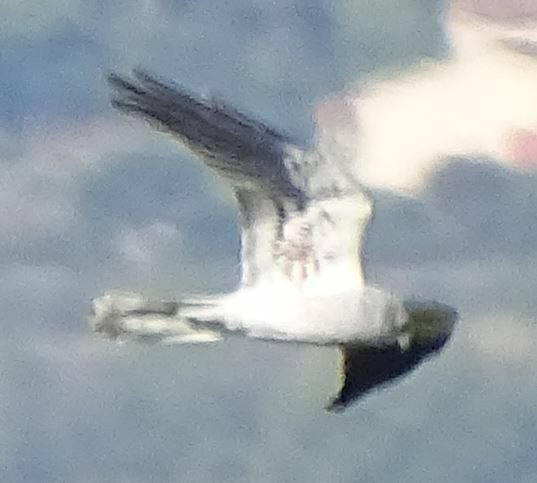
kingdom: Animalia
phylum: Chordata
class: Aves
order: Accipitriformes
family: Accipitridae
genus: Circus
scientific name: Circus pygargus
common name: Montagu's harrier
